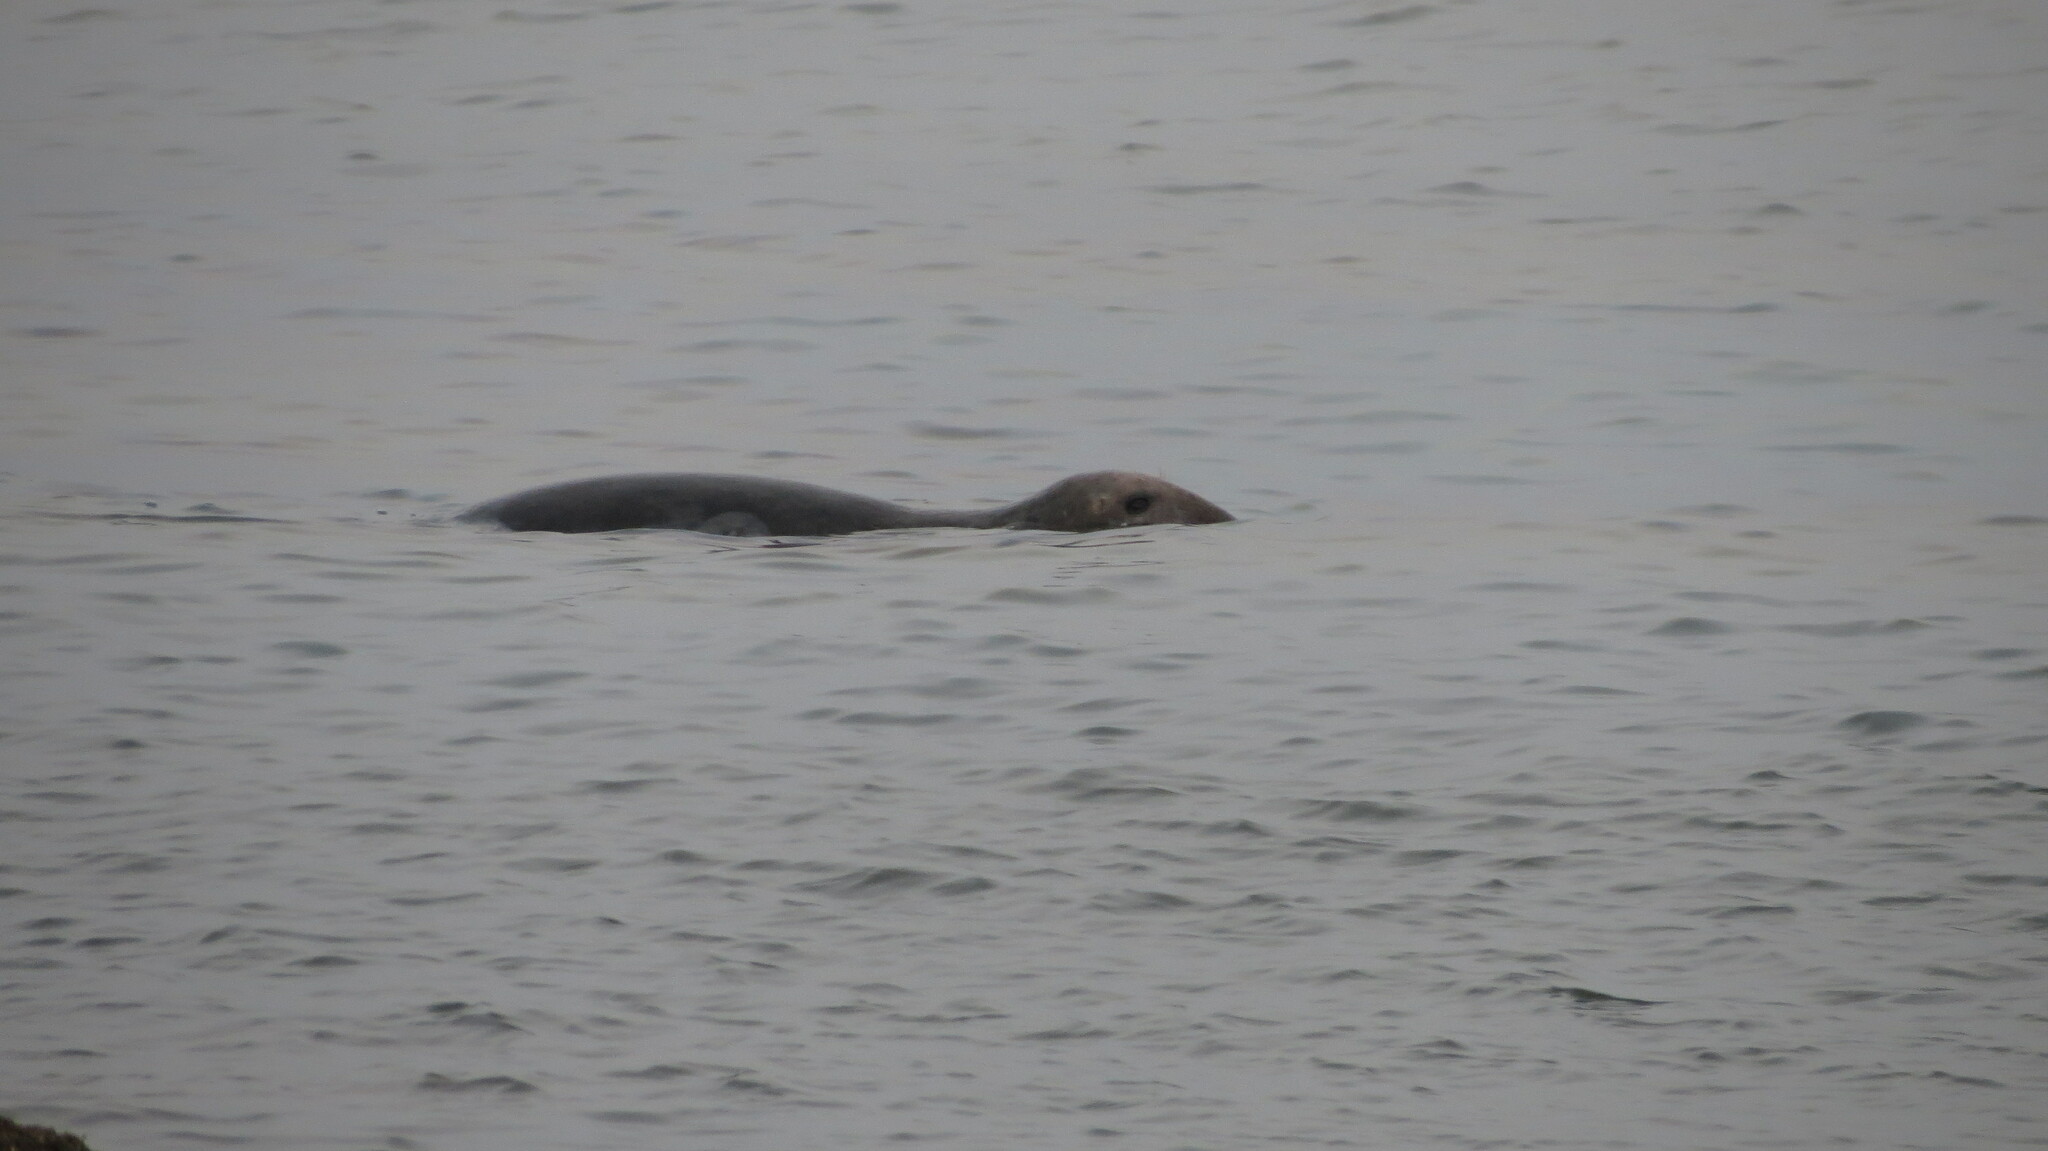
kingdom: Animalia
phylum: Chordata
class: Mammalia
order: Carnivora
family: Phocidae
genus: Halichoerus
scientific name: Halichoerus grypus
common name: Grey seal
